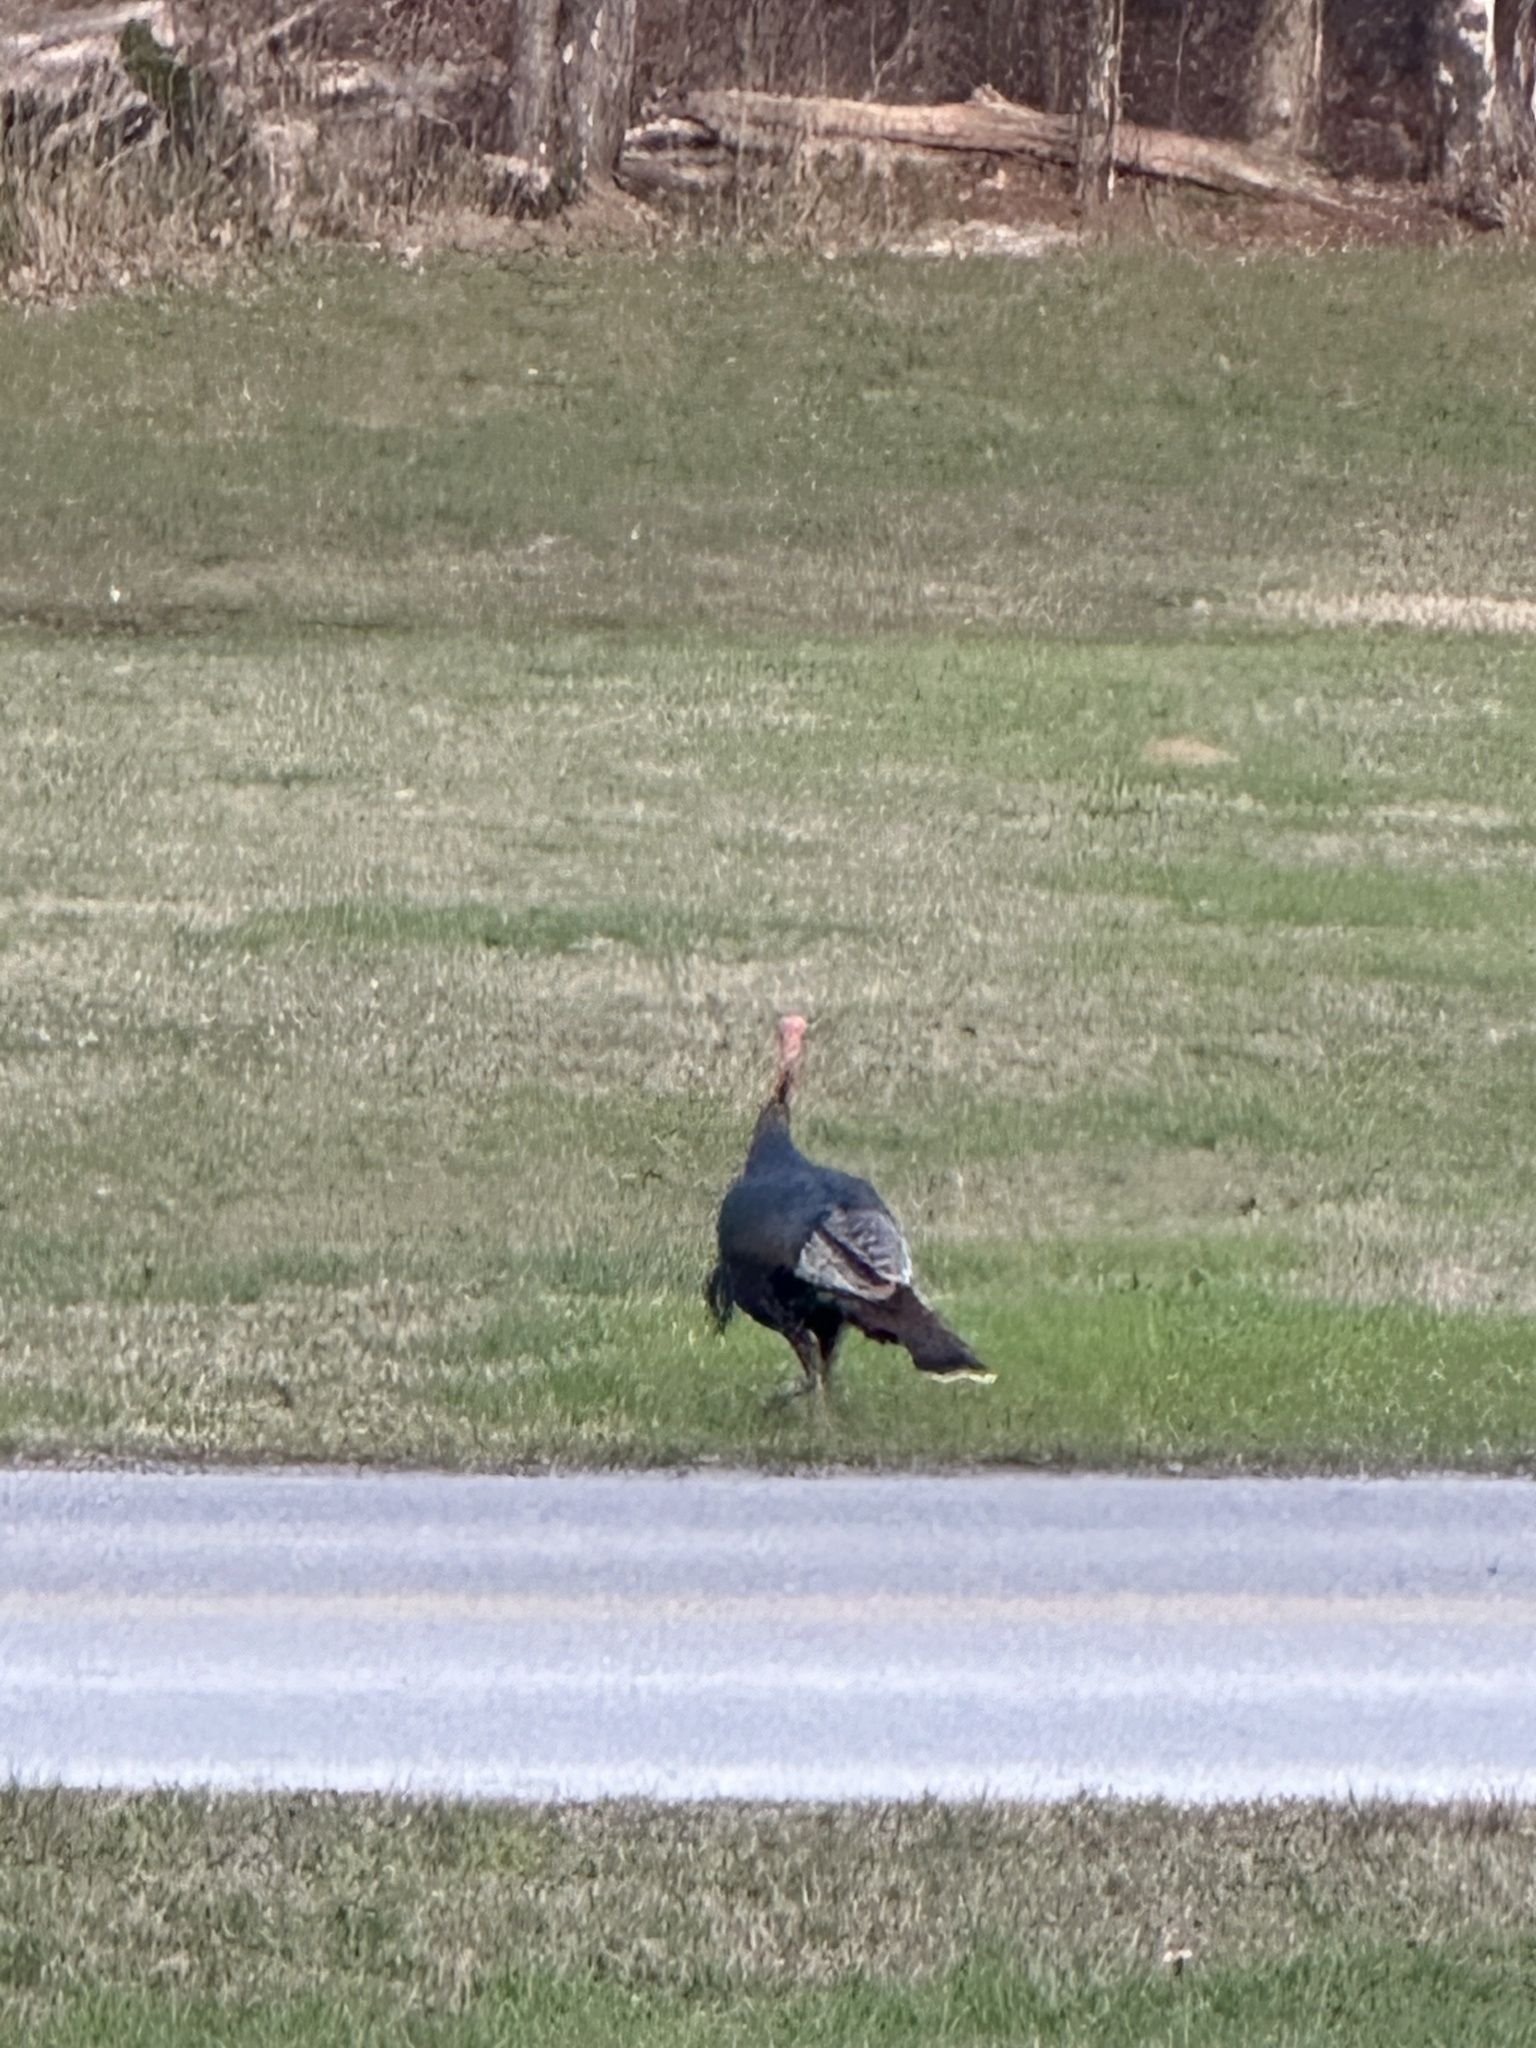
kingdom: Animalia
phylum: Chordata
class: Aves
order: Galliformes
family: Phasianidae
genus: Meleagris
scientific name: Meleagris gallopavo
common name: Wild turkey
